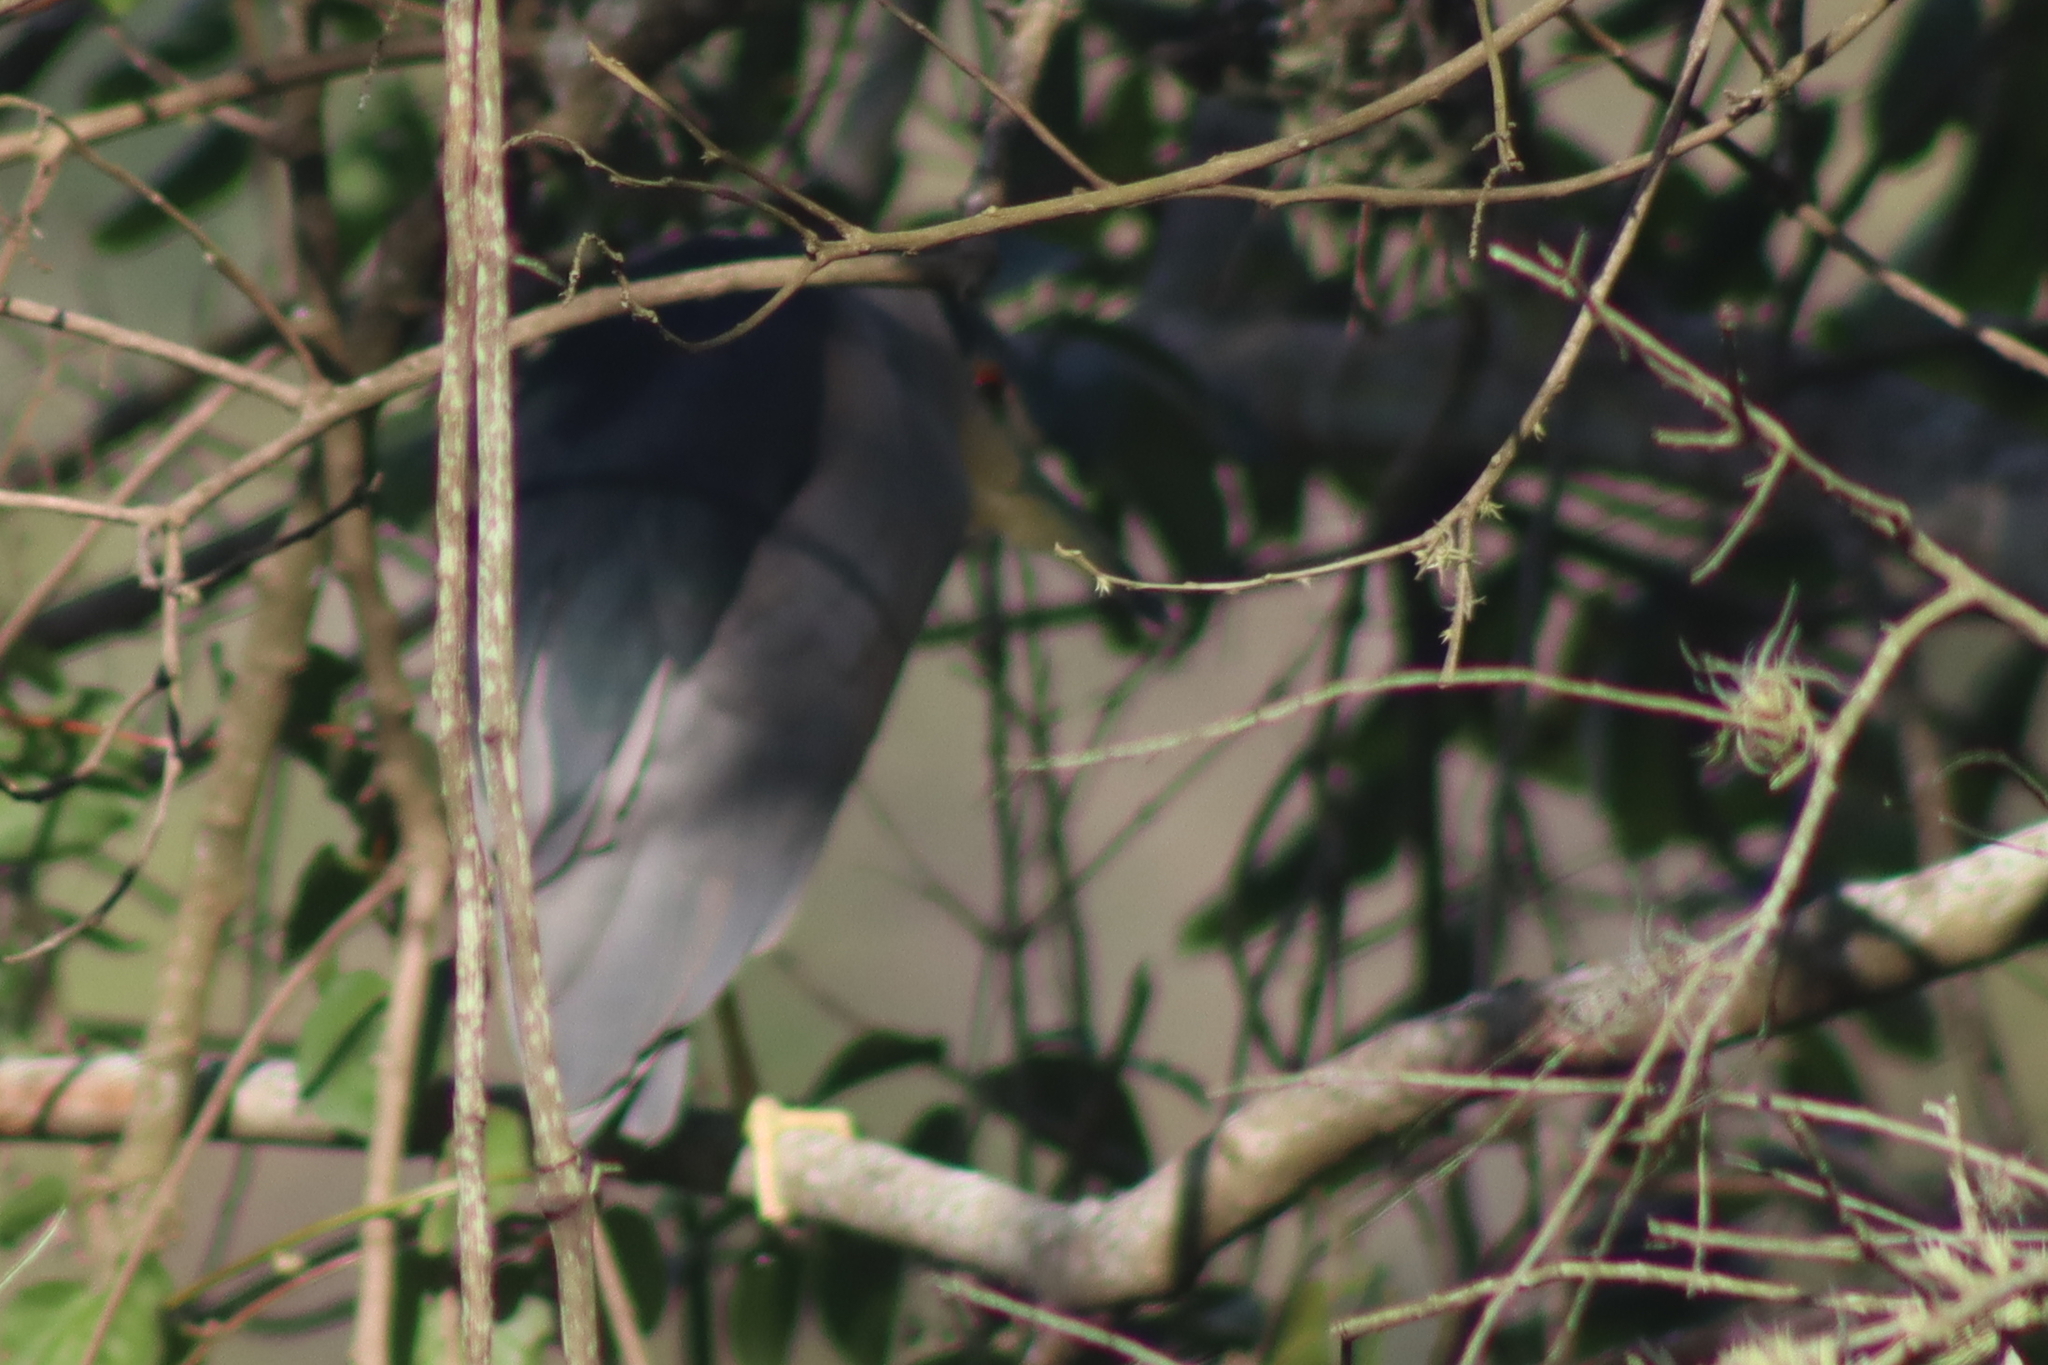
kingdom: Animalia
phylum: Chordata
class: Aves
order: Pelecaniformes
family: Ardeidae
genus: Nycticorax
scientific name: Nycticorax nycticorax
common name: Black-crowned night heron
